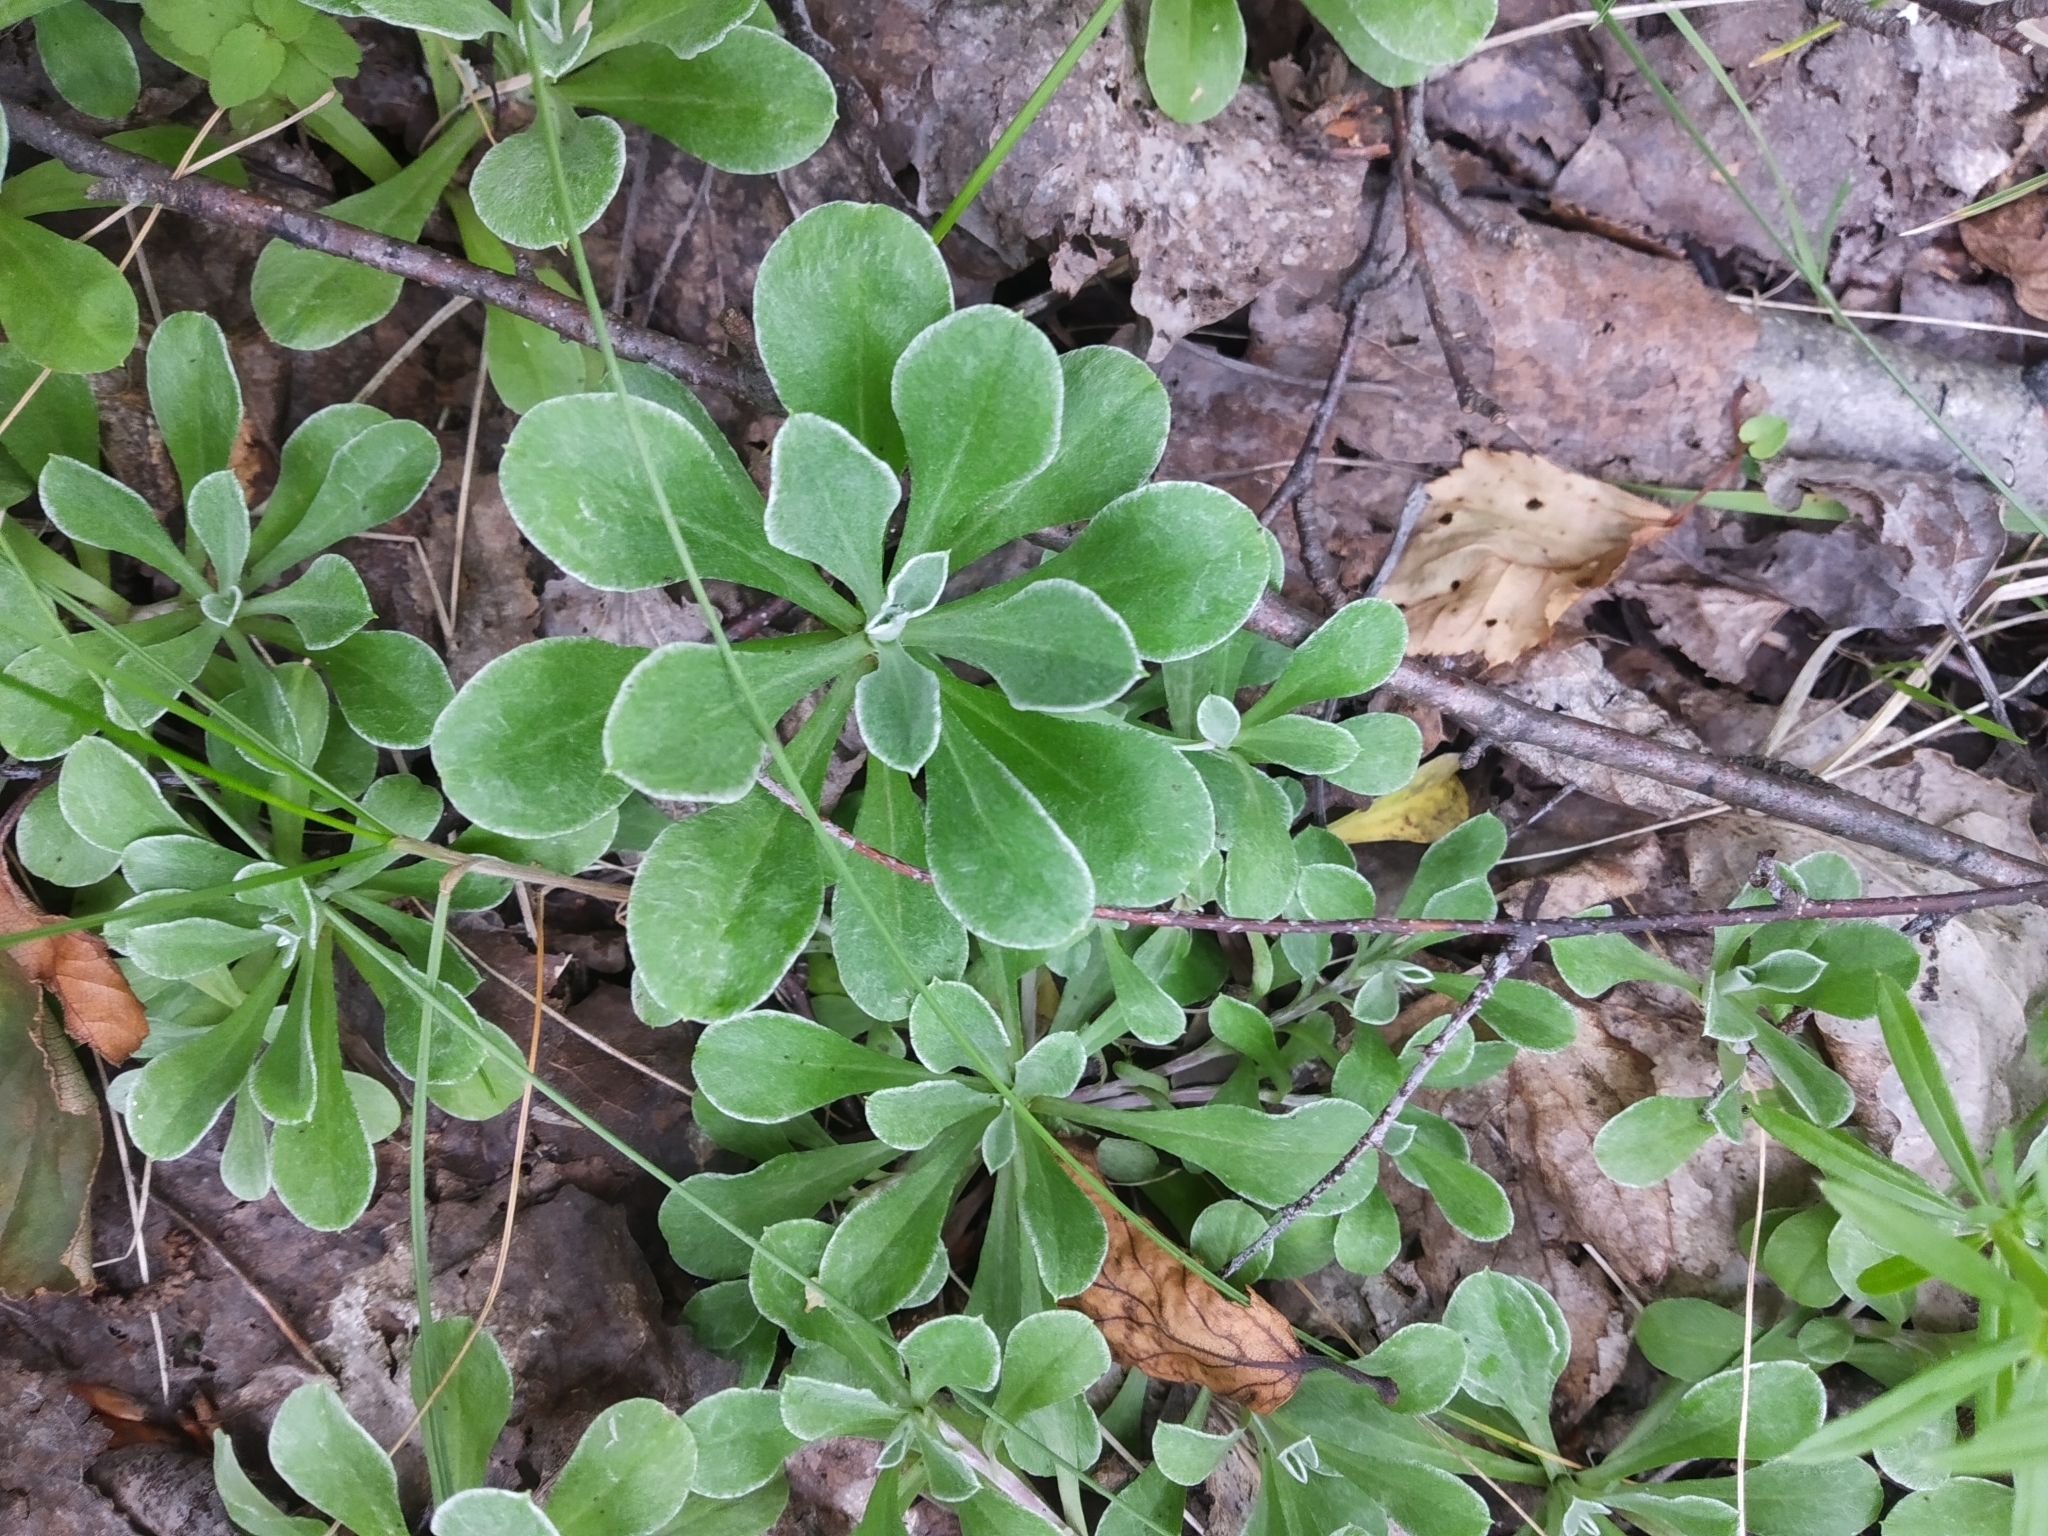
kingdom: Plantae
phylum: Tracheophyta
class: Magnoliopsida
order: Asterales
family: Asteraceae
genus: Antennaria
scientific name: Antennaria dioica
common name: Mountain everlasting
